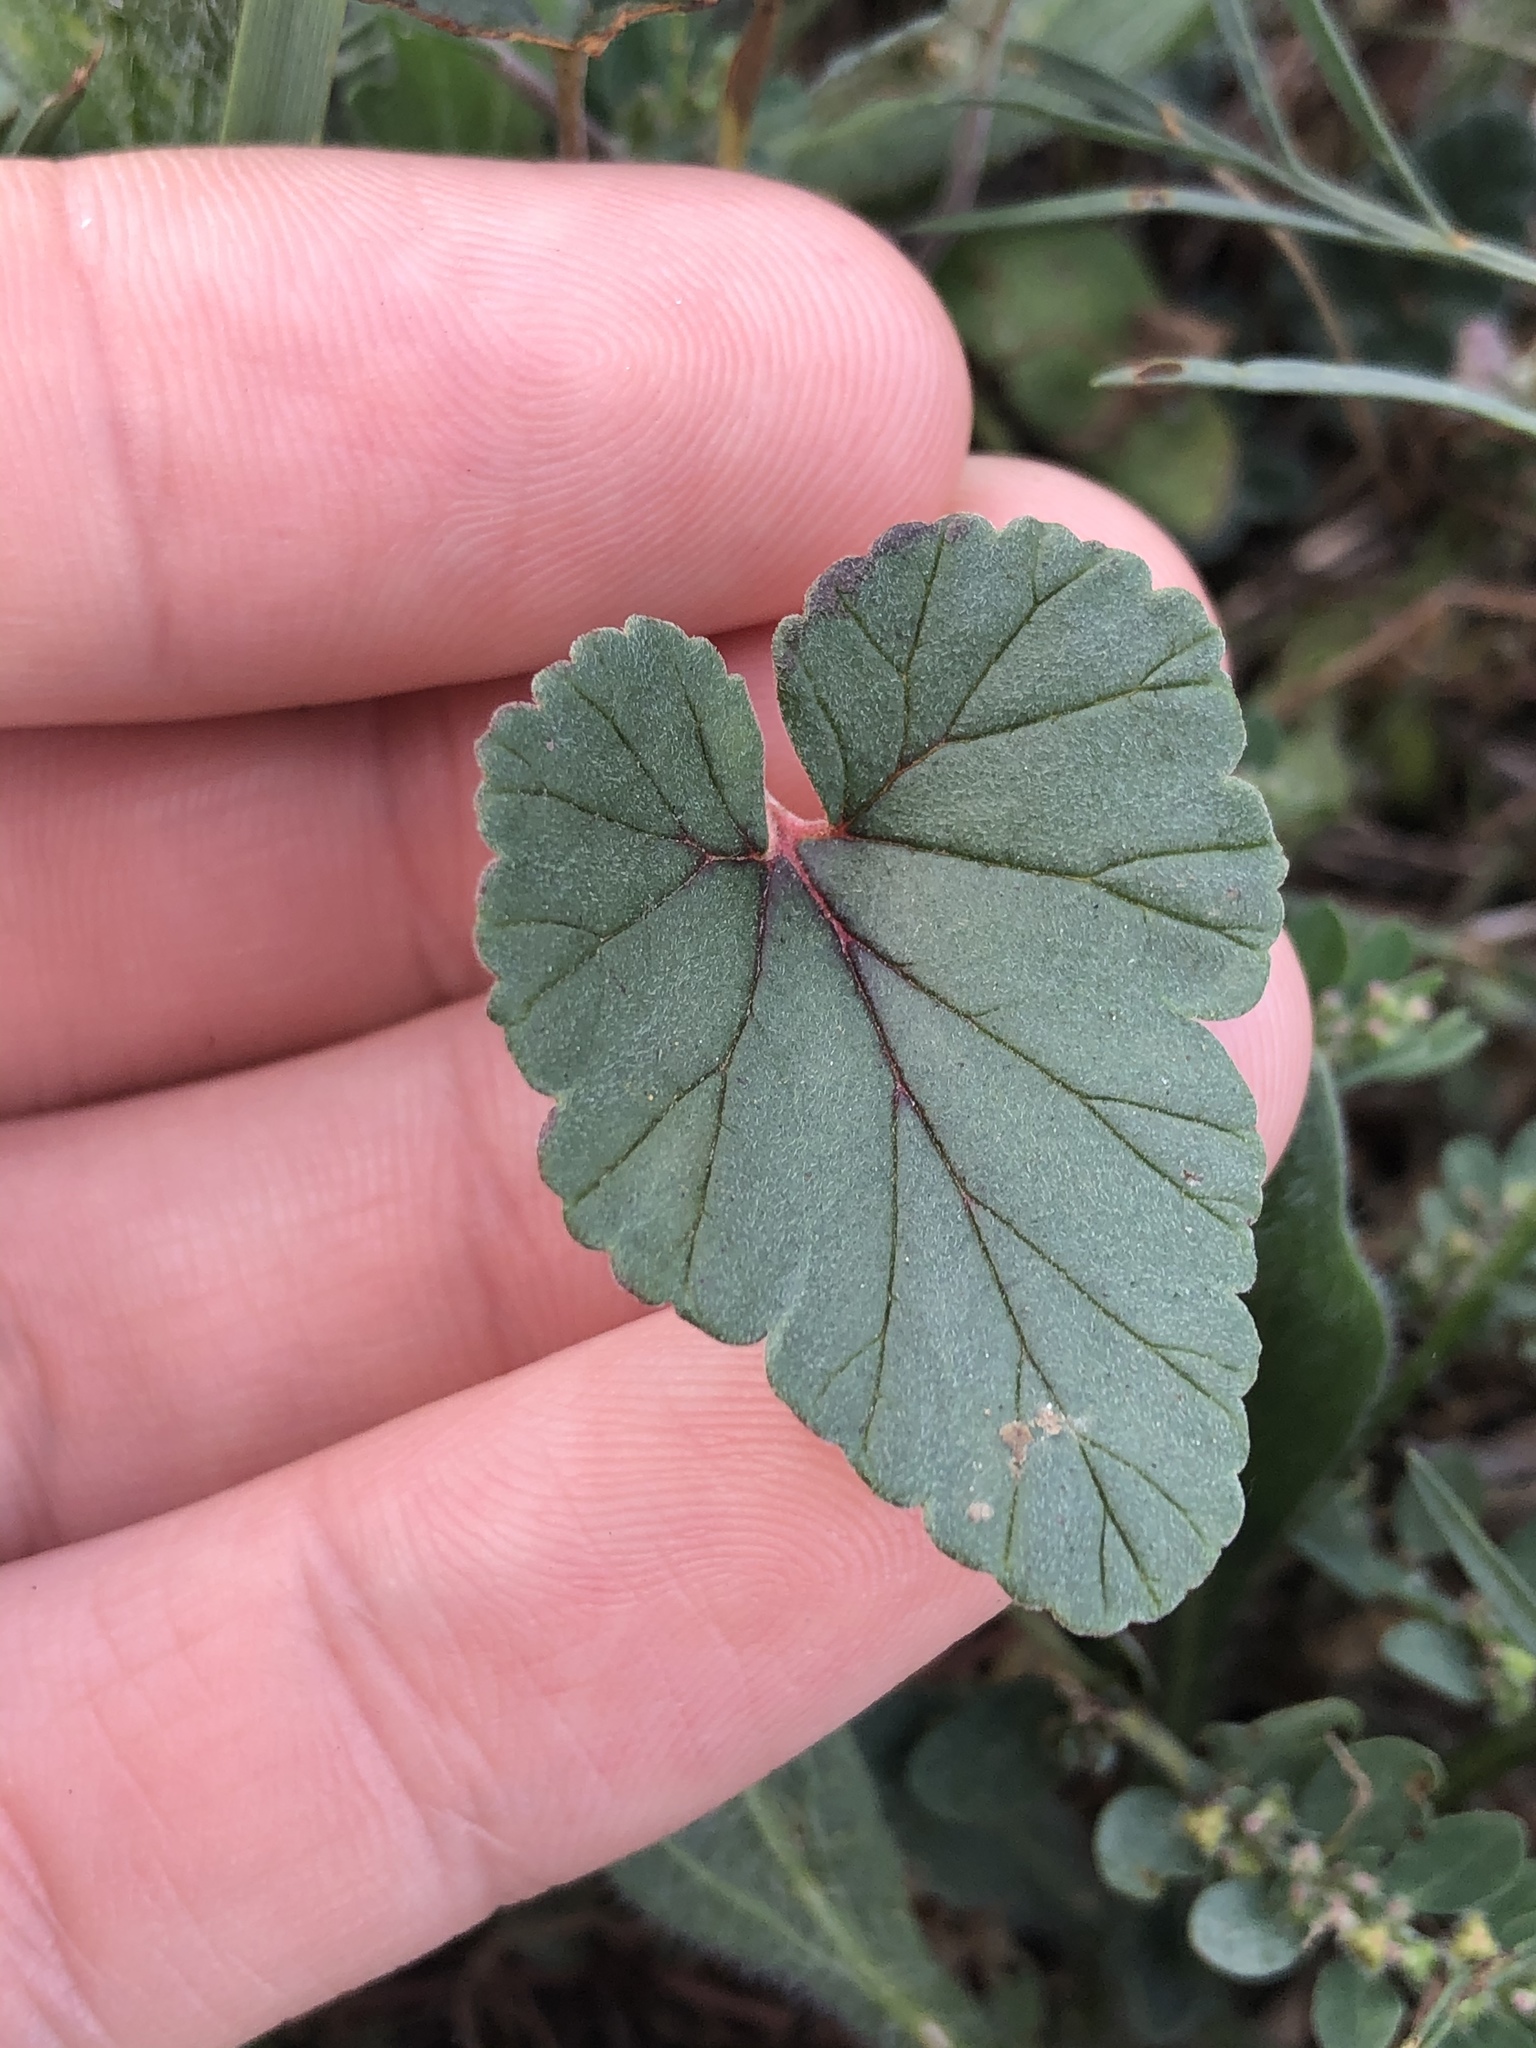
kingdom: Plantae
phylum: Tracheophyta
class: Magnoliopsida
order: Geraniales
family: Geraniaceae
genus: Erodium
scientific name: Erodium texanum
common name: Texas stork's-bill
